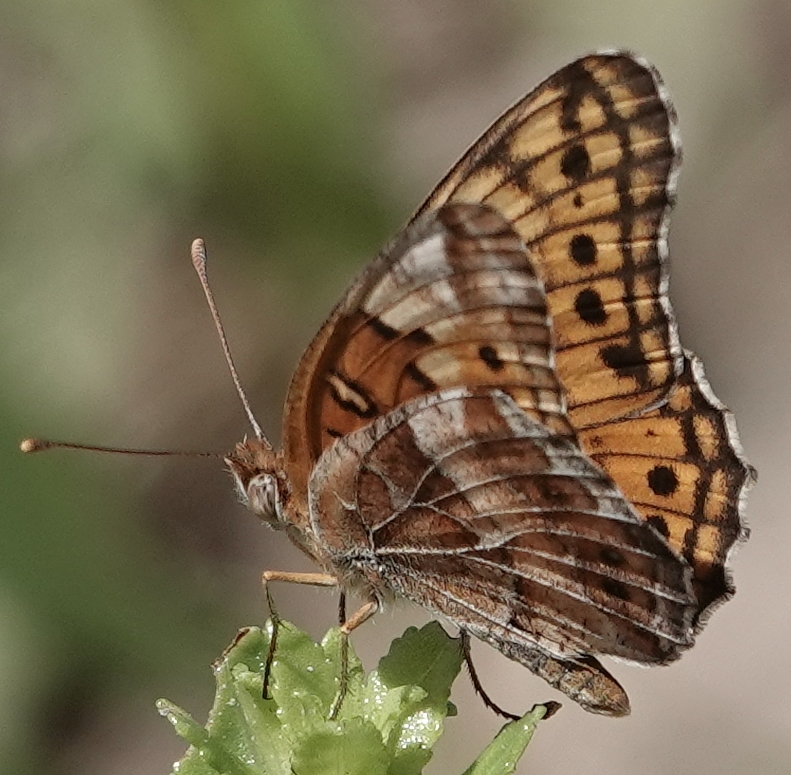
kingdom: Animalia
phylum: Arthropoda
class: Insecta
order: Lepidoptera
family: Nymphalidae
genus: Euptoieta
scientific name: Euptoieta claudia
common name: Variegated fritillary
